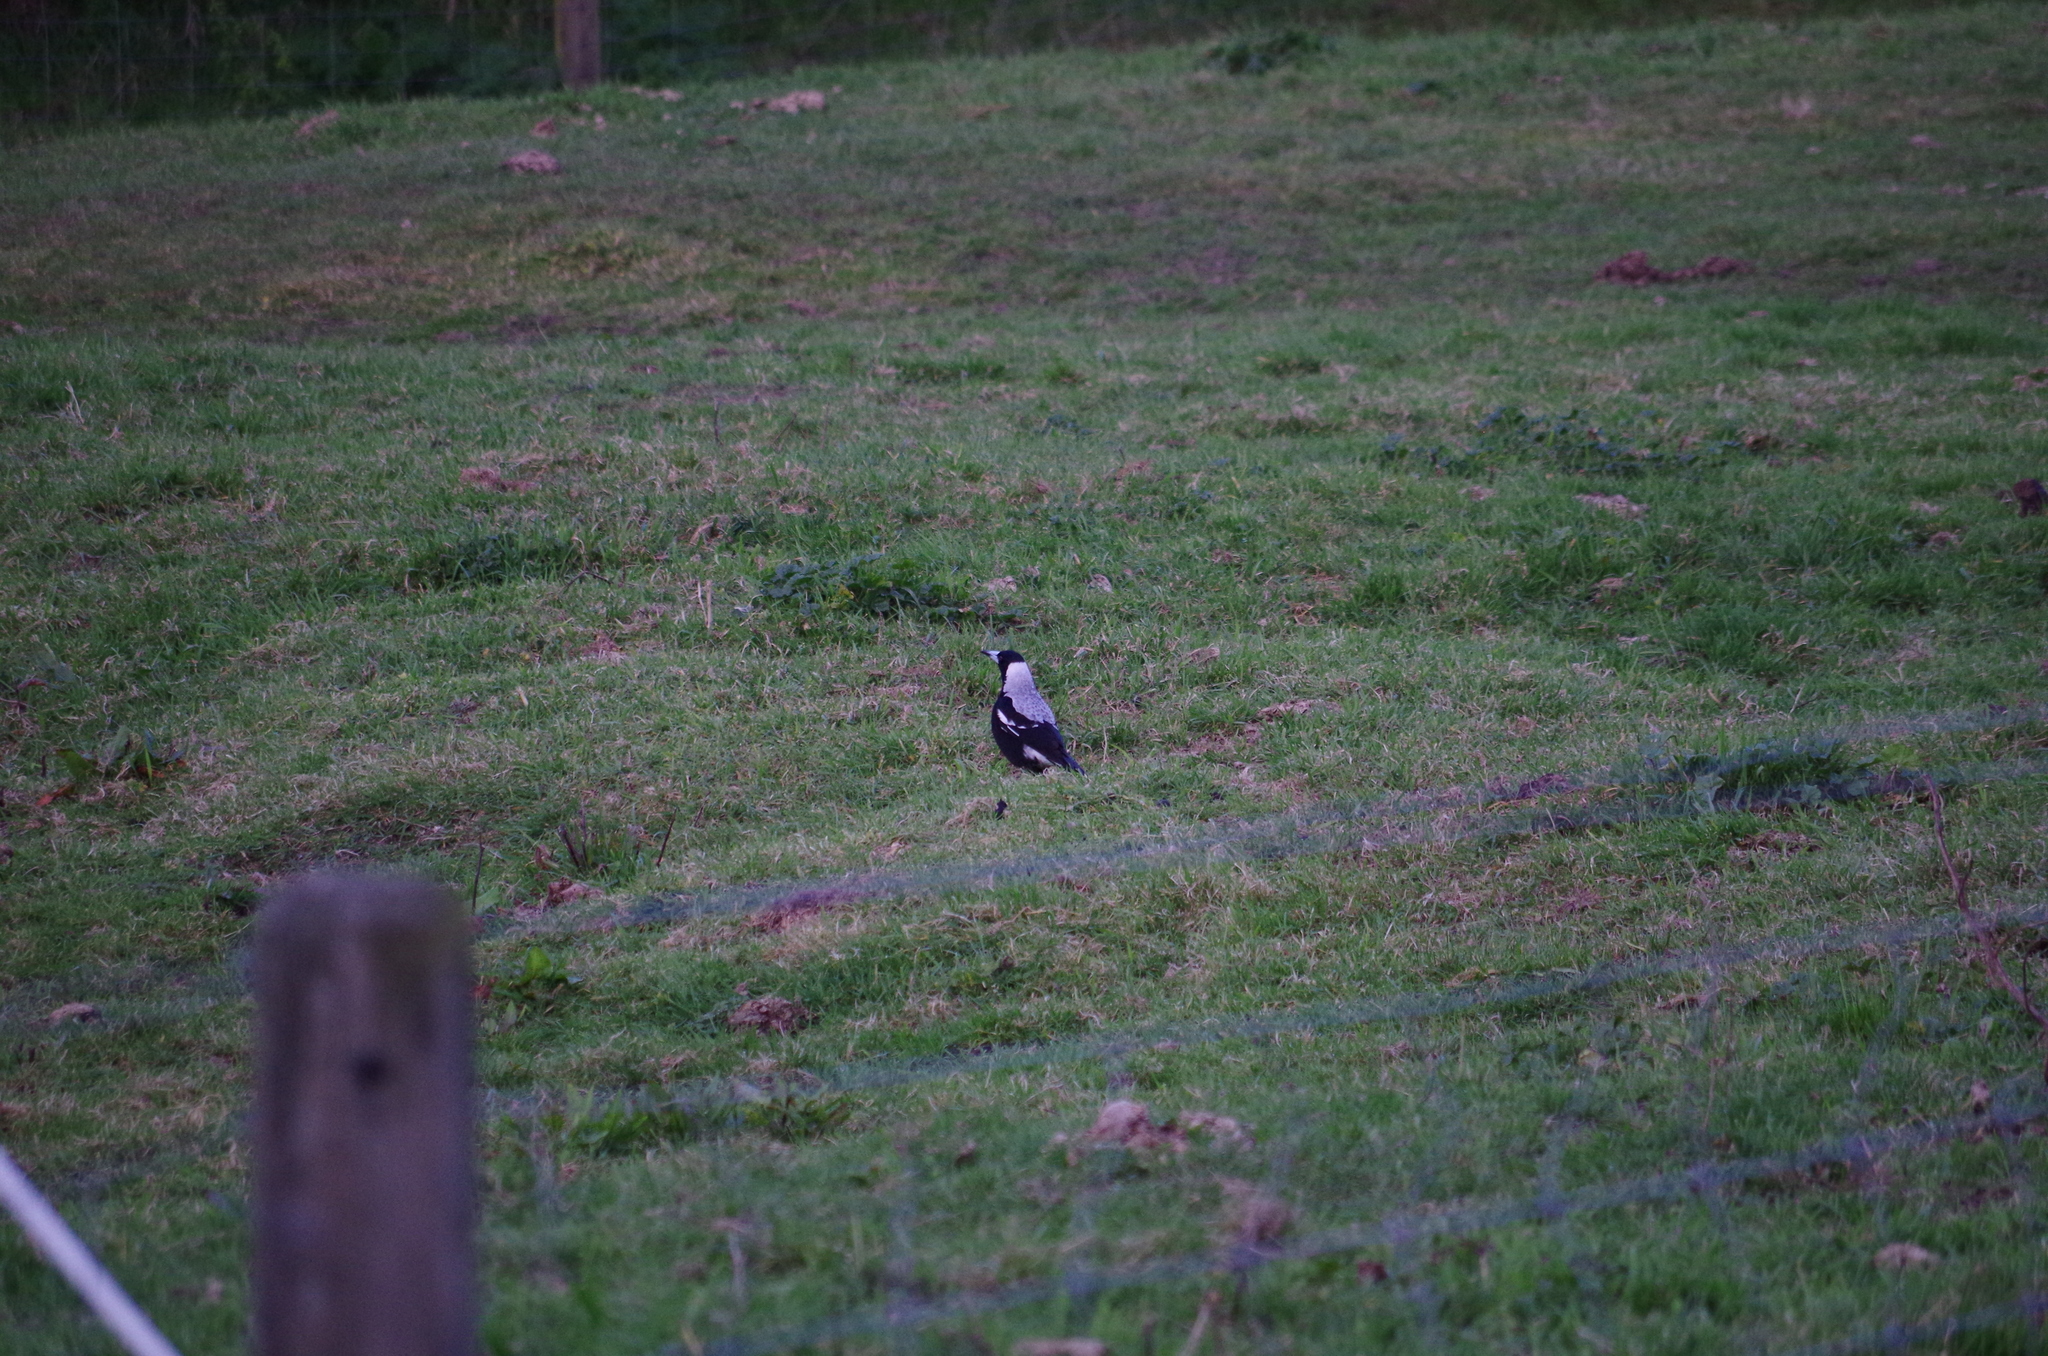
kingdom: Animalia
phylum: Chordata
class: Aves
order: Passeriformes
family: Cracticidae
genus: Gymnorhina
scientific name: Gymnorhina tibicen
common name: Australian magpie
